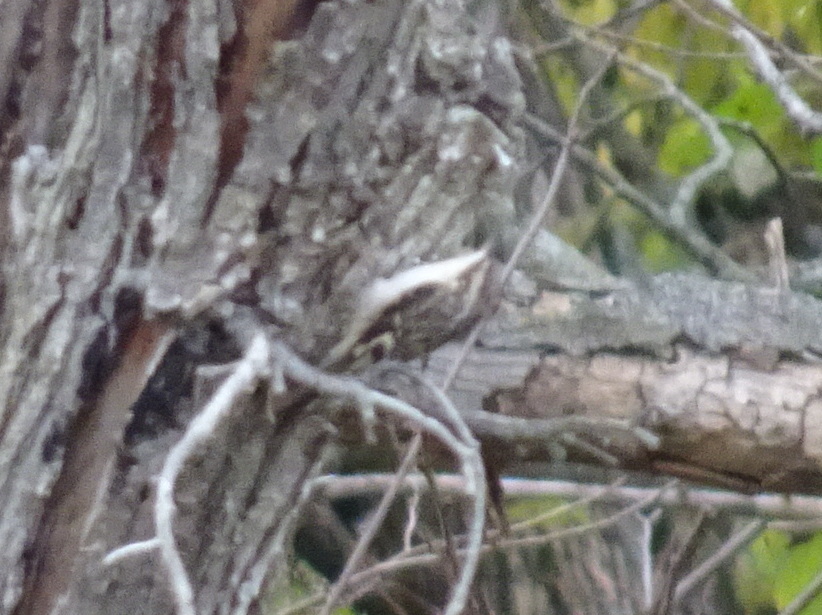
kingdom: Animalia
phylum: Chordata
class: Aves
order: Passeriformes
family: Certhiidae
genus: Certhia
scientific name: Certhia americana
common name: Brown creeper
